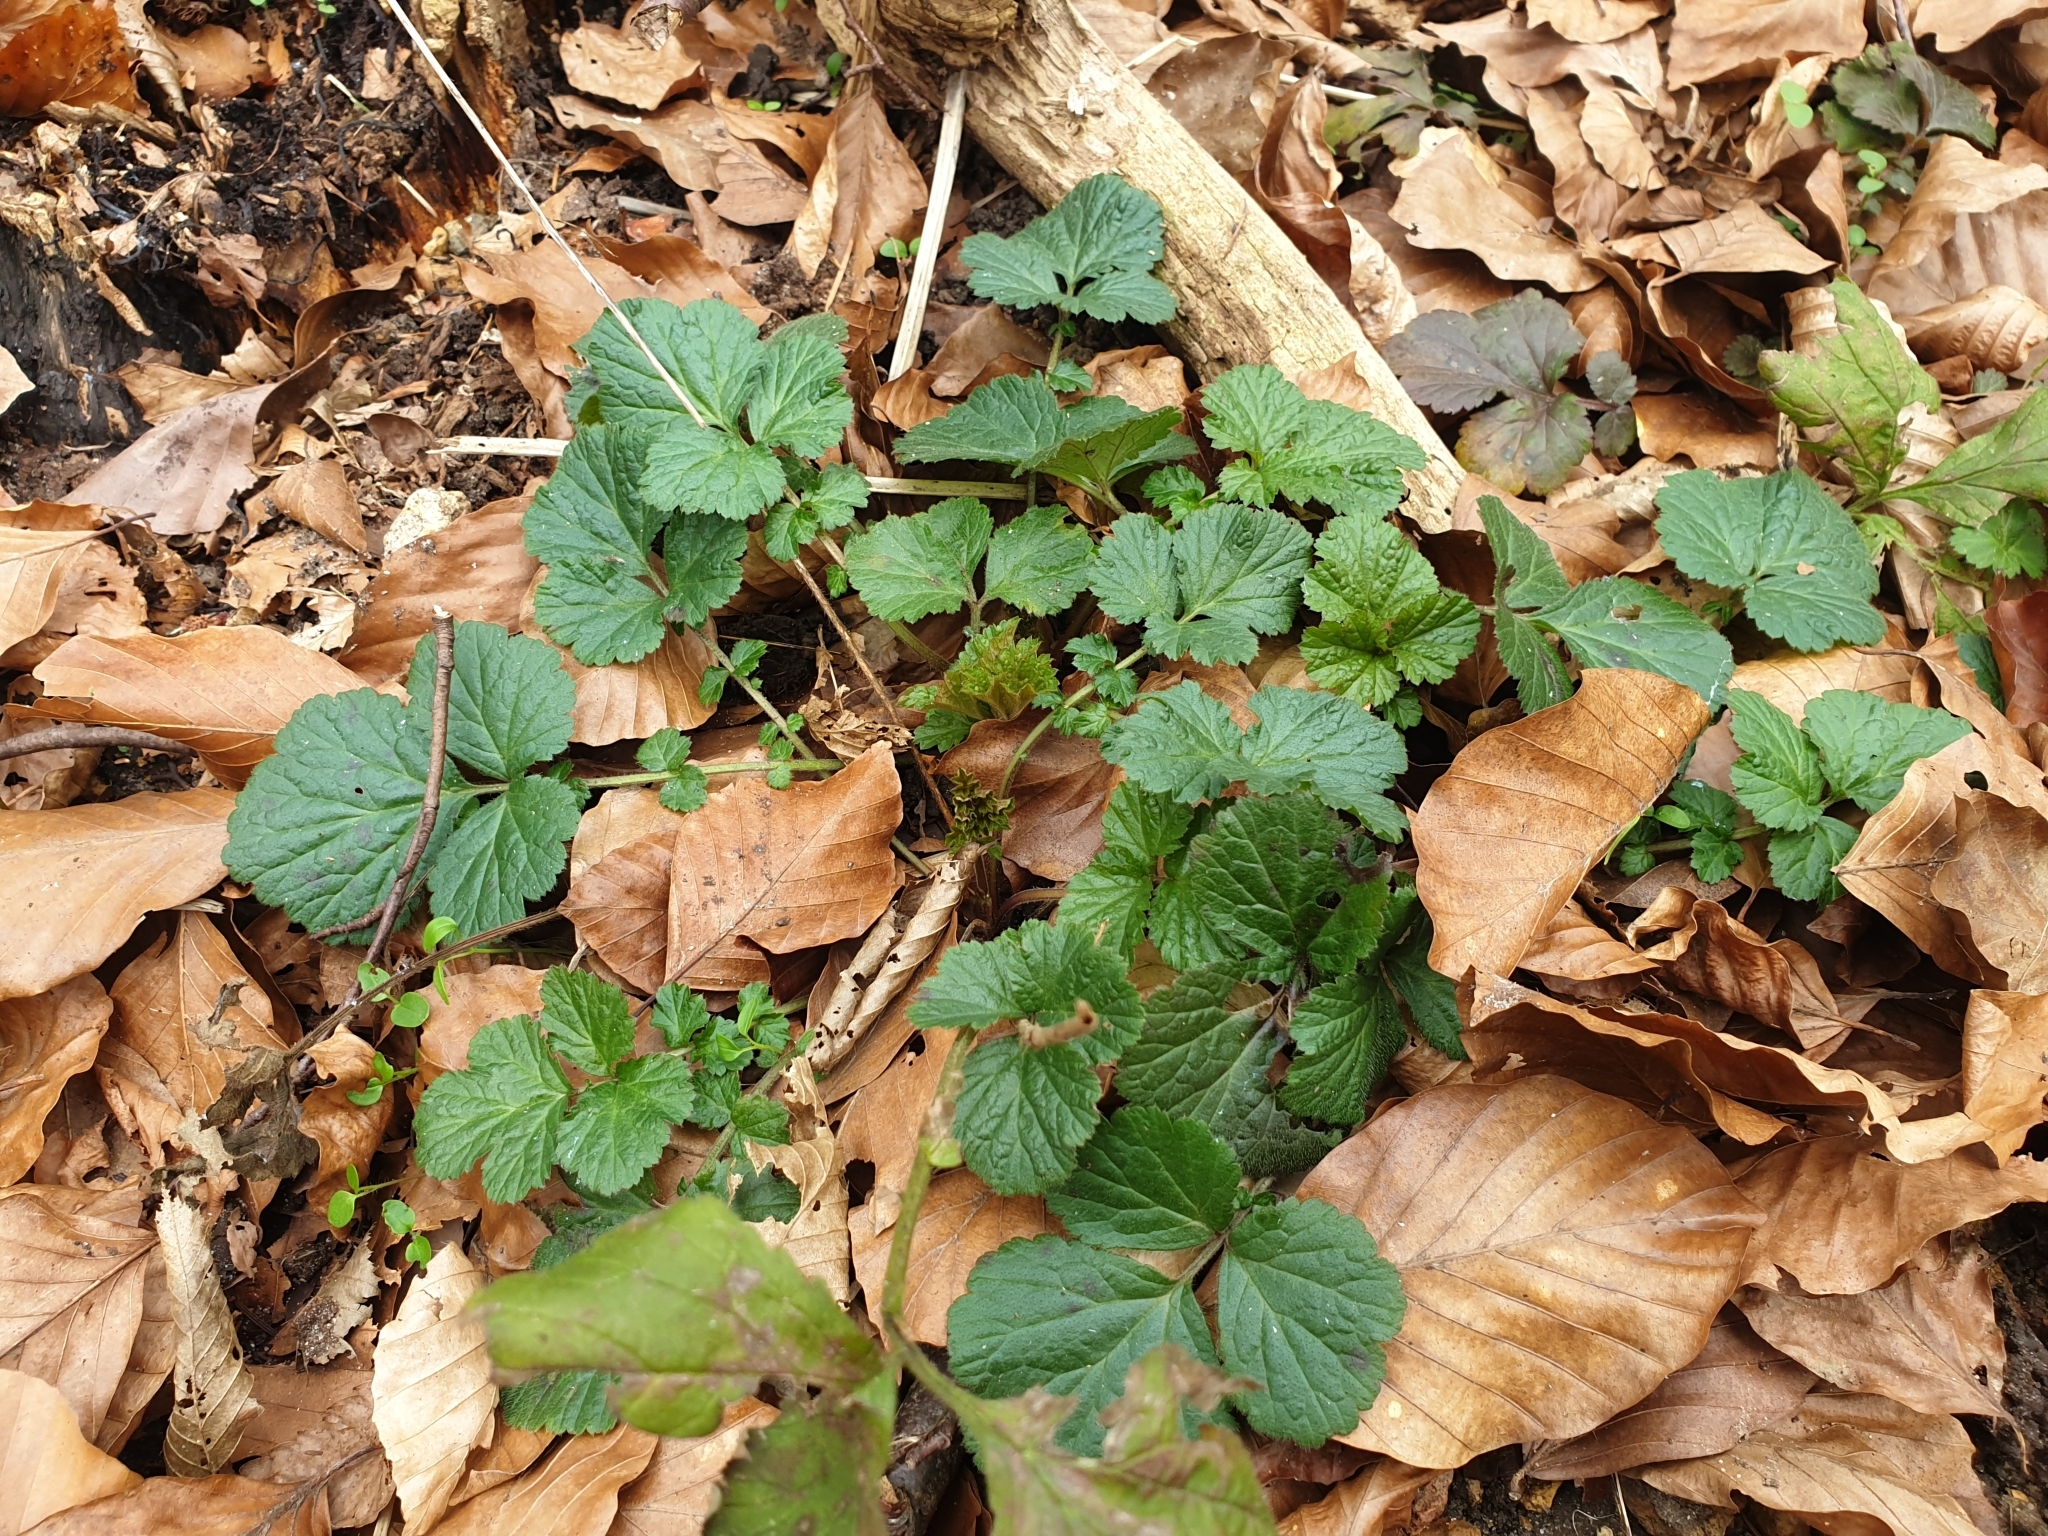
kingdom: Plantae
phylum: Tracheophyta
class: Magnoliopsida
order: Rosales
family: Rosaceae
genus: Geum
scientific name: Geum urbanum
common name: Wood avens
